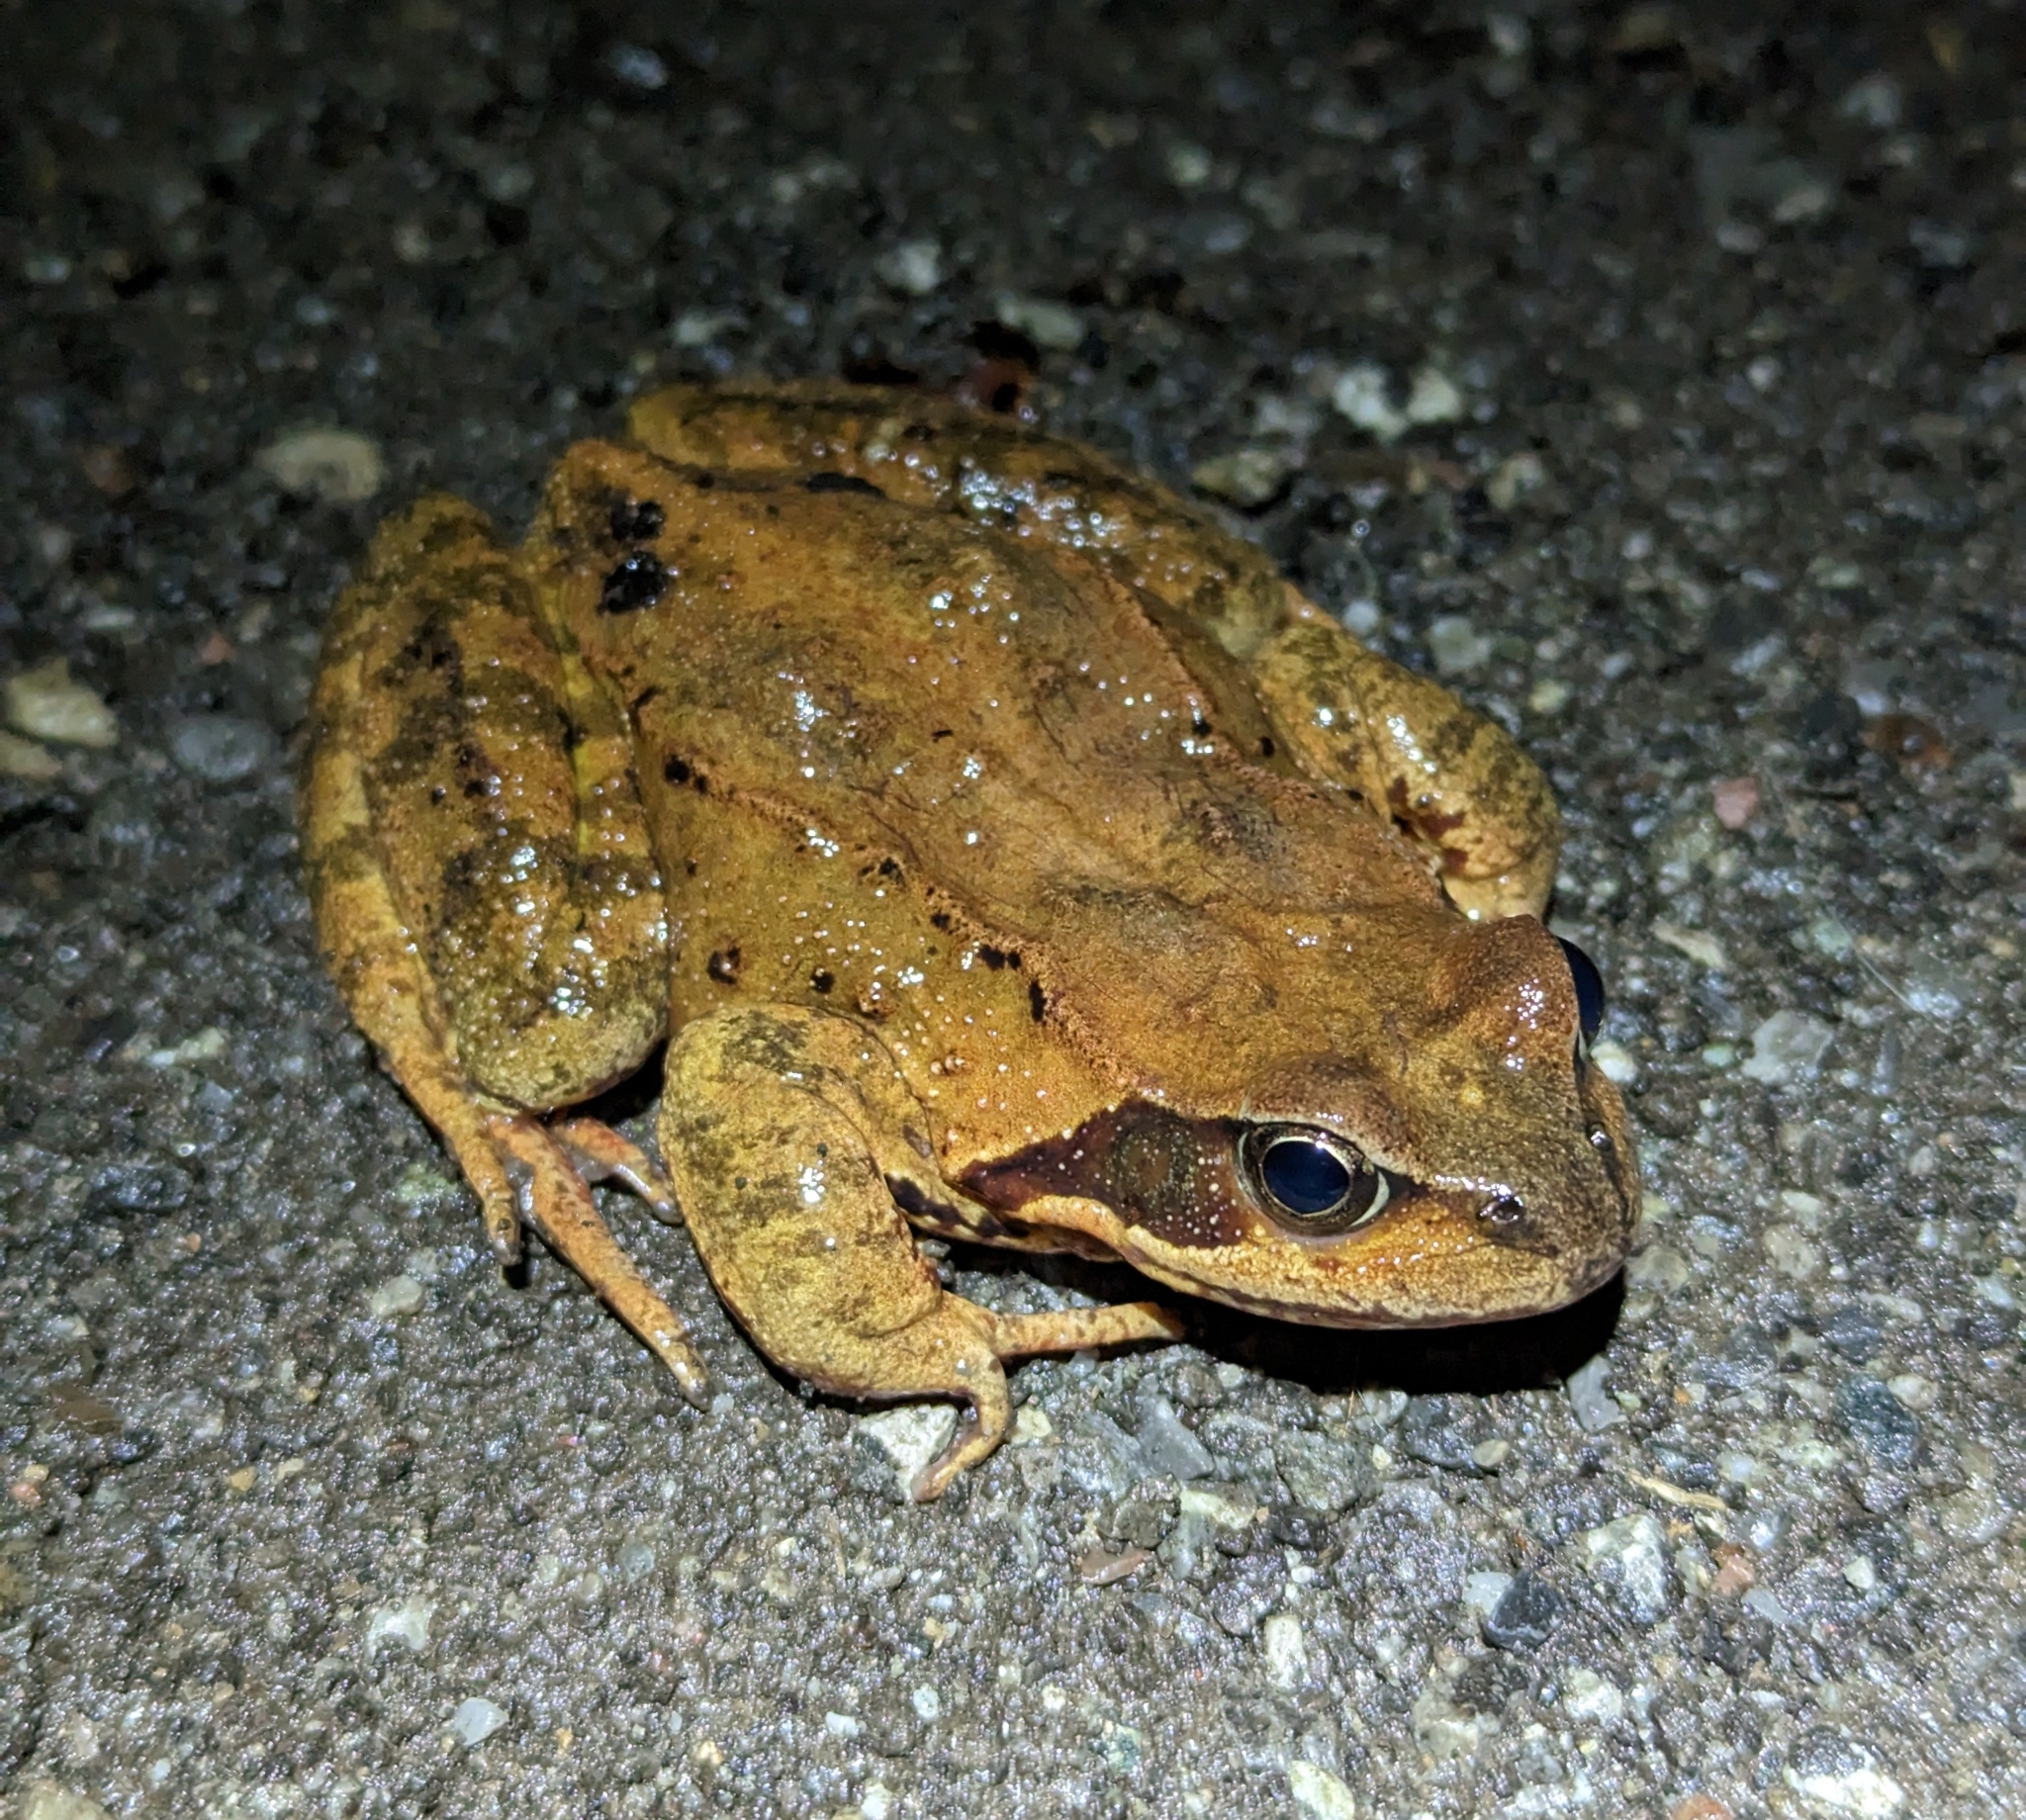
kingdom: Animalia
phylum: Chordata
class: Amphibia
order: Anura
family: Ranidae
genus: Rana
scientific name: Rana temporaria
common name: Common frog
